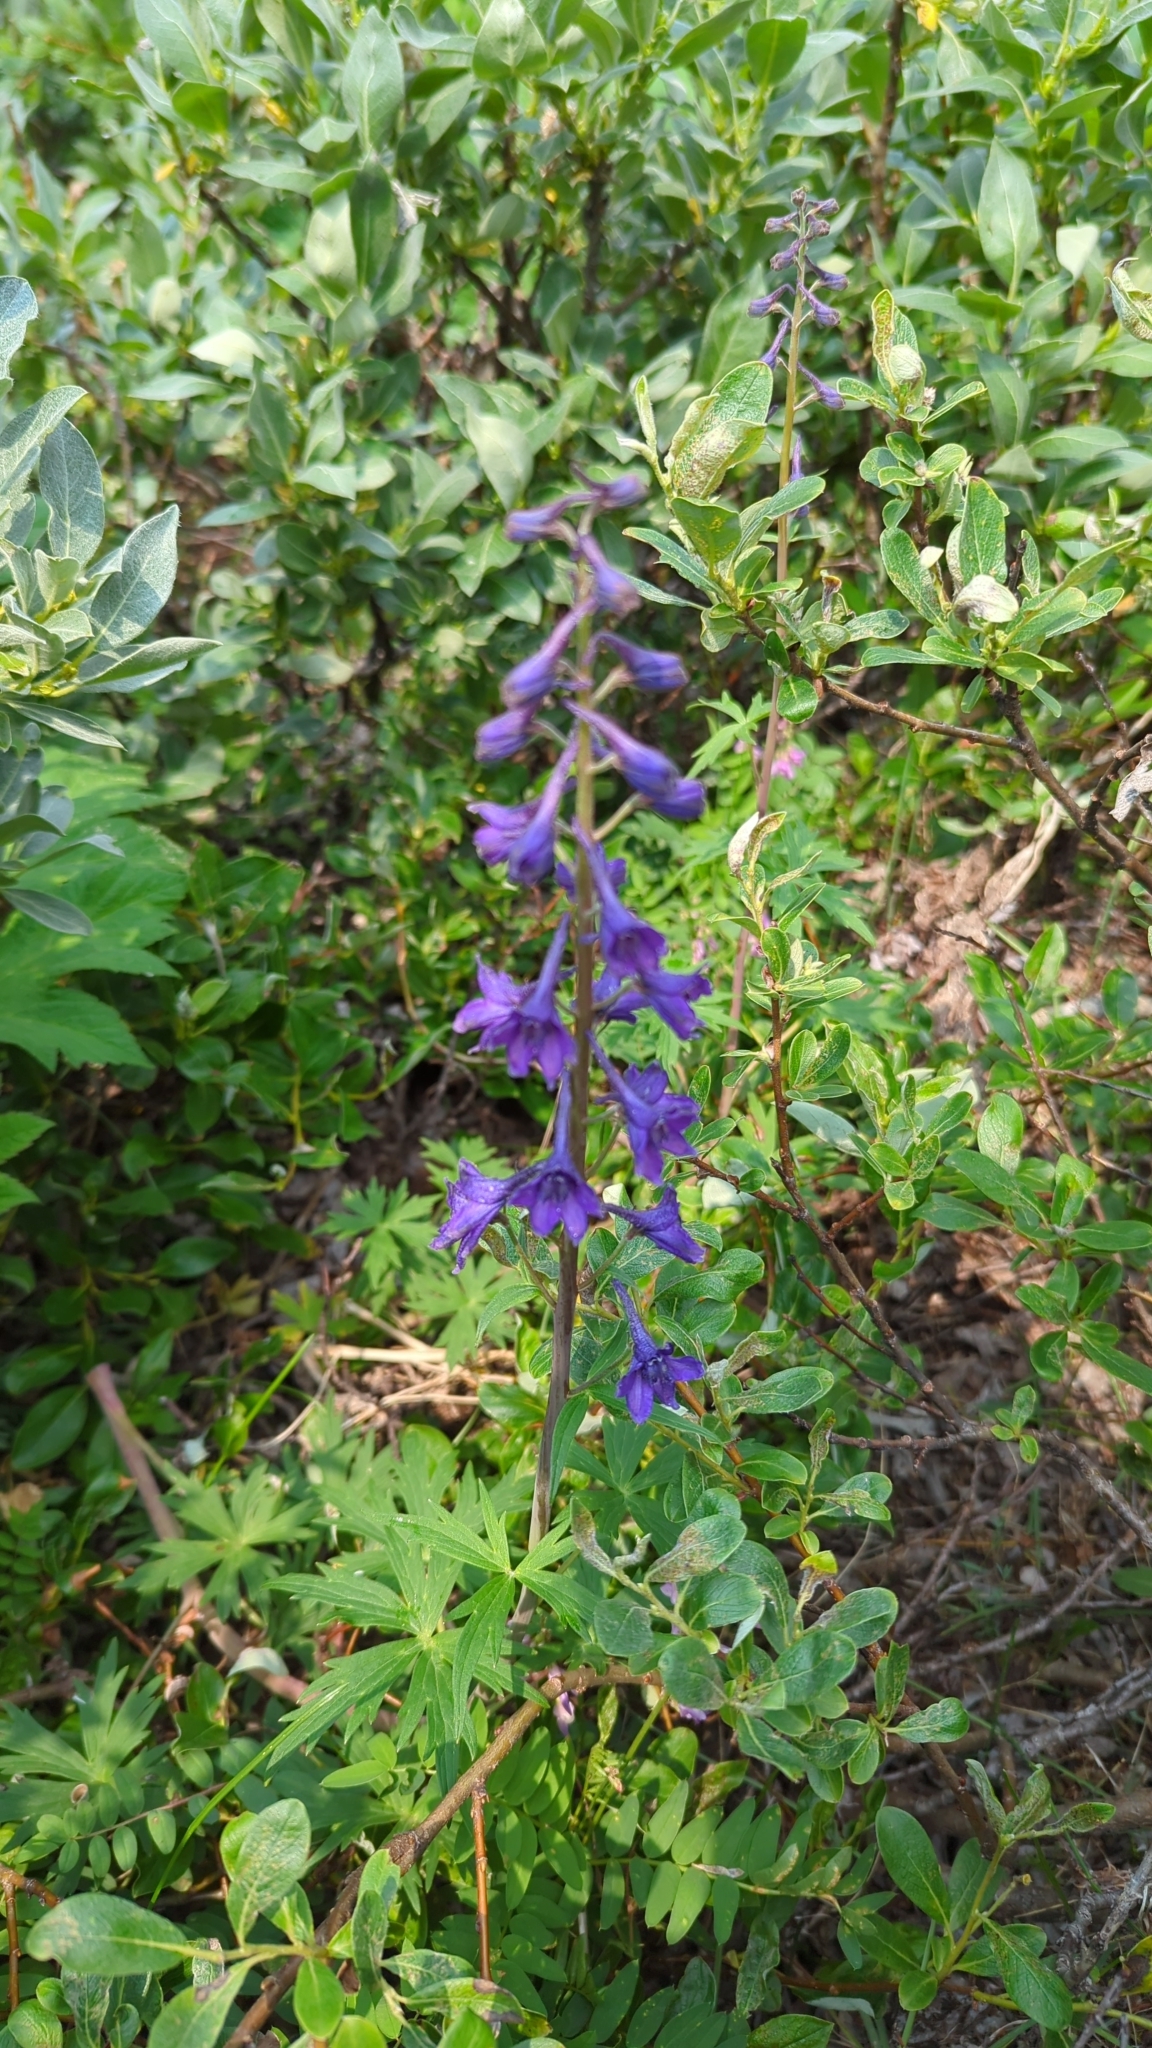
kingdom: Plantae
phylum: Tracheophyta
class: Magnoliopsida
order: Ranunculales
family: Ranunculaceae
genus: Delphinium
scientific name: Delphinium glaucum
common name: Brown's larkspur
